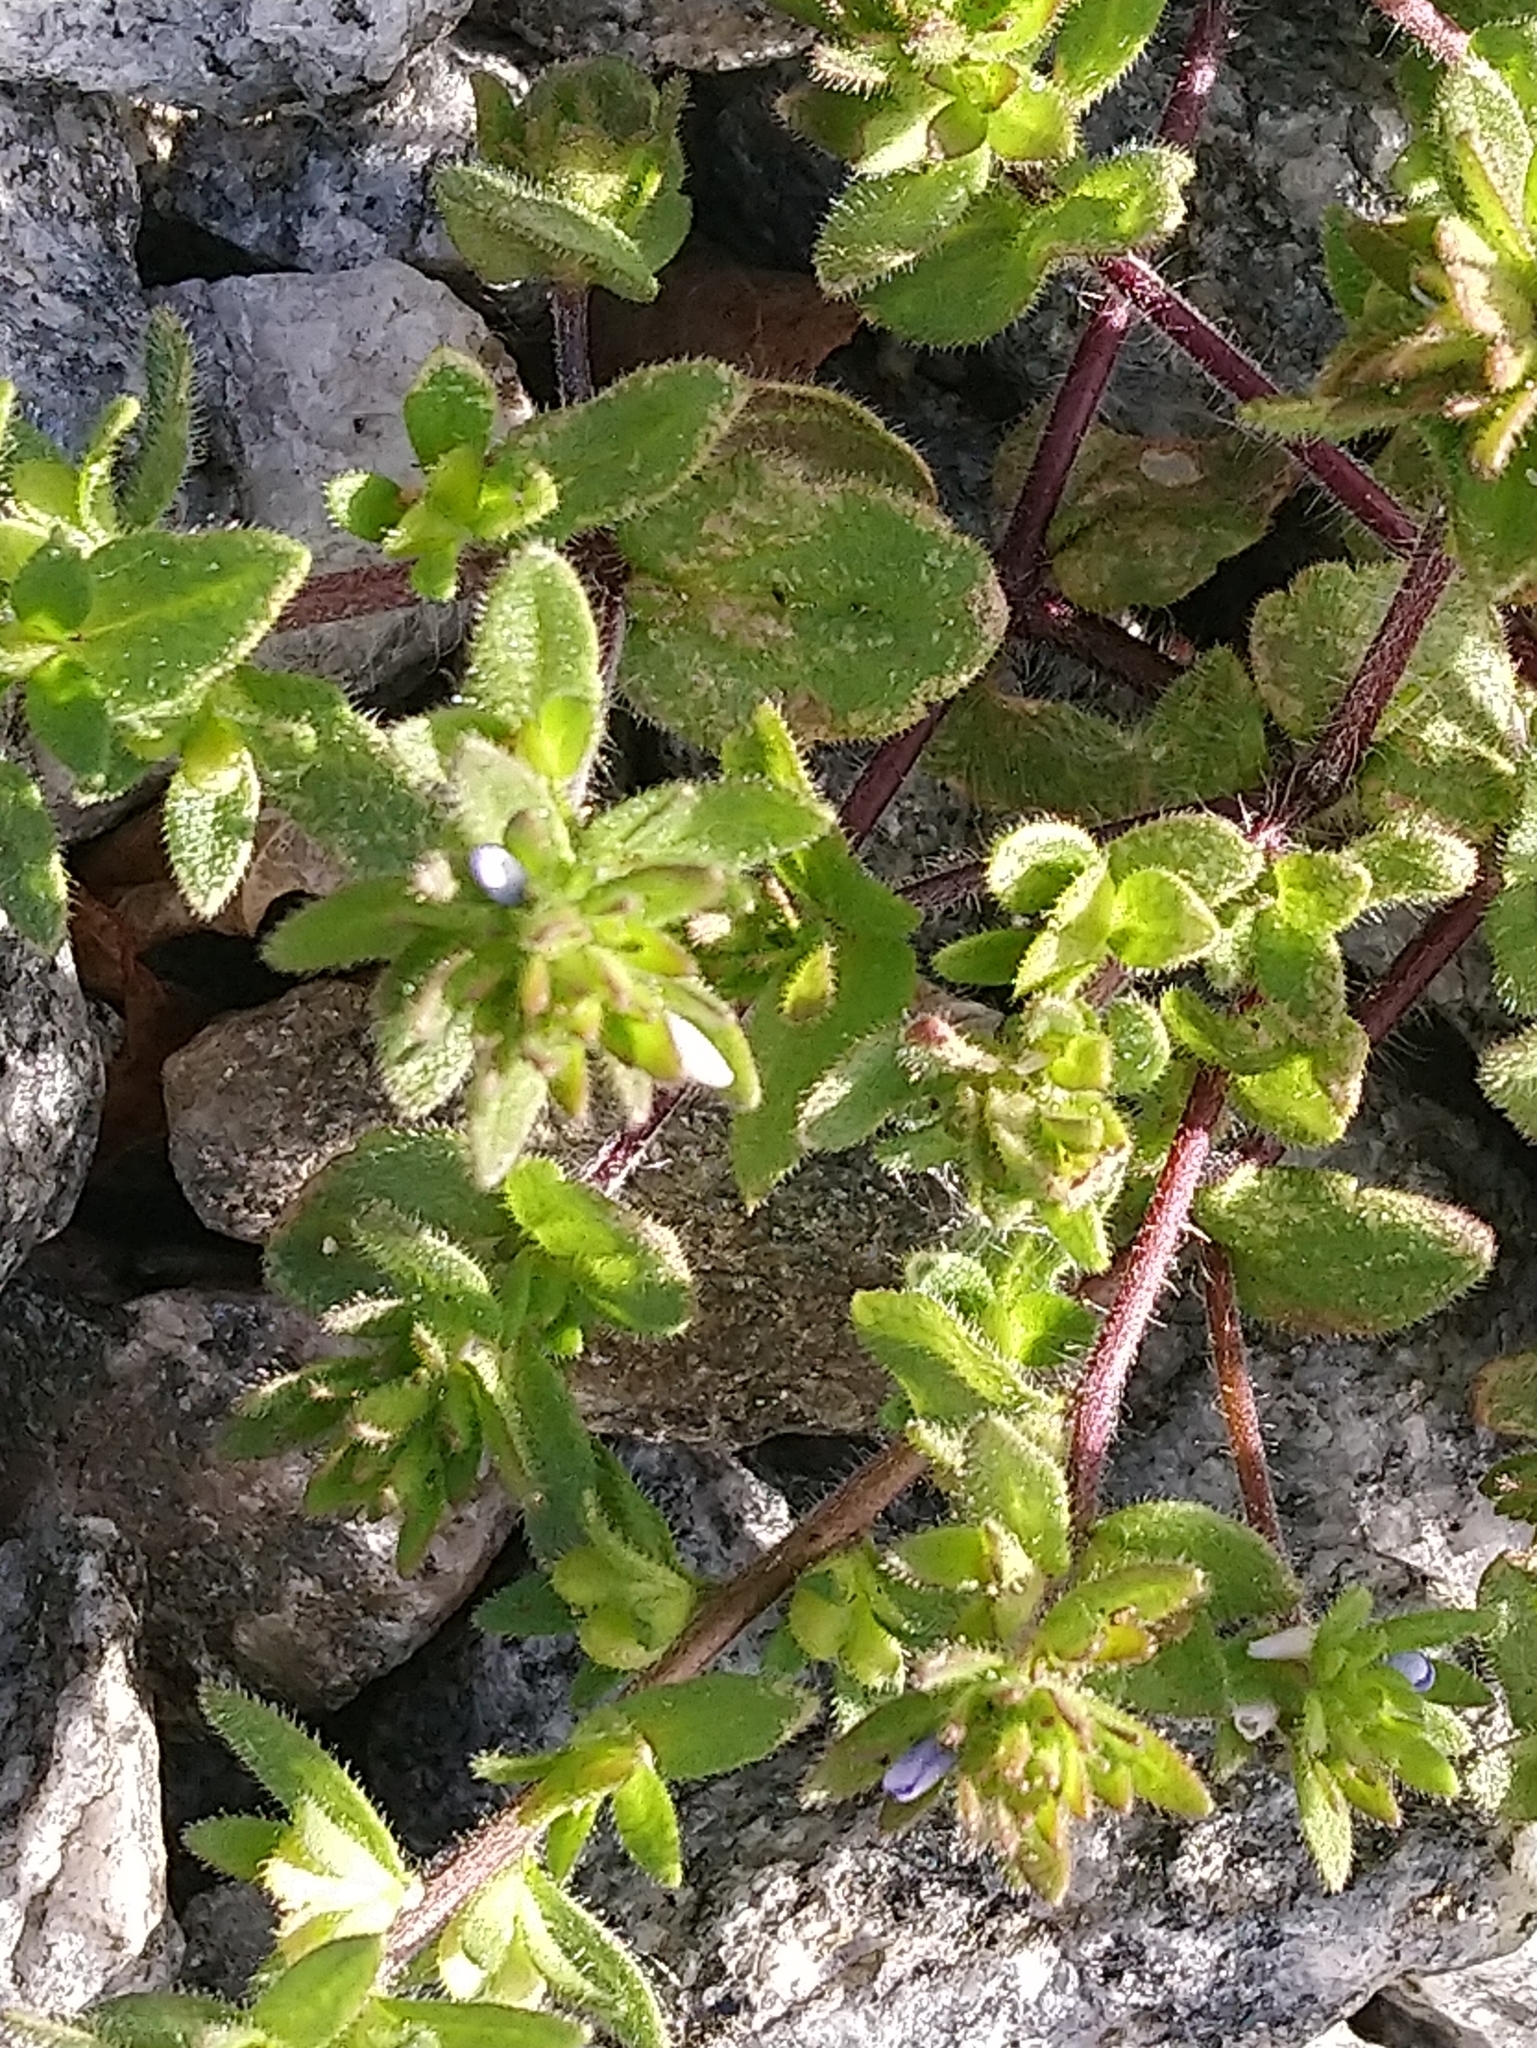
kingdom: Plantae
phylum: Tracheophyta
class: Magnoliopsida
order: Lamiales
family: Plantaginaceae
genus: Veronica
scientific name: Veronica arvensis
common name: Corn speedwell
